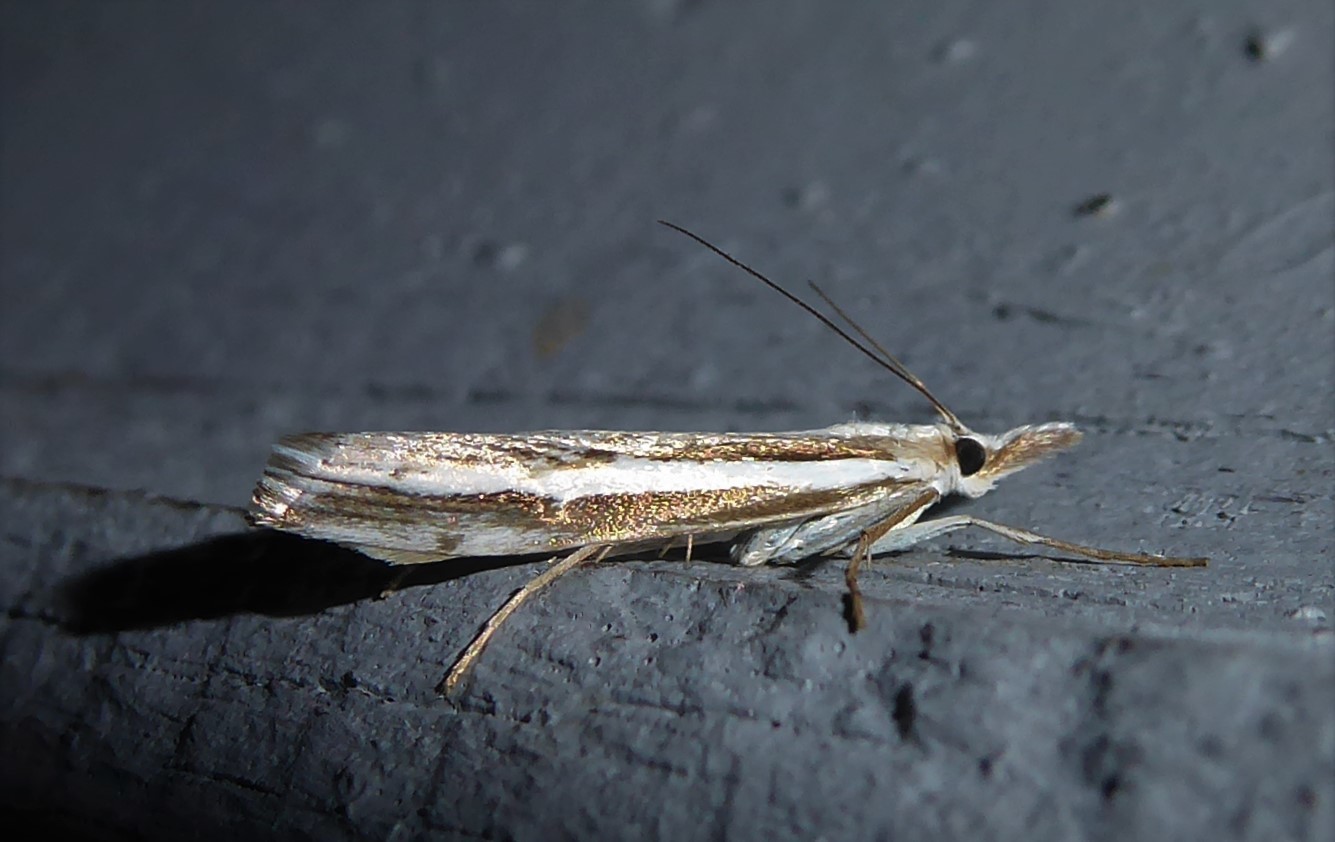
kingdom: Animalia
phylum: Arthropoda
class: Insecta
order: Lepidoptera
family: Crambidae
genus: Orocrambus
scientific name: Orocrambus vittellus
